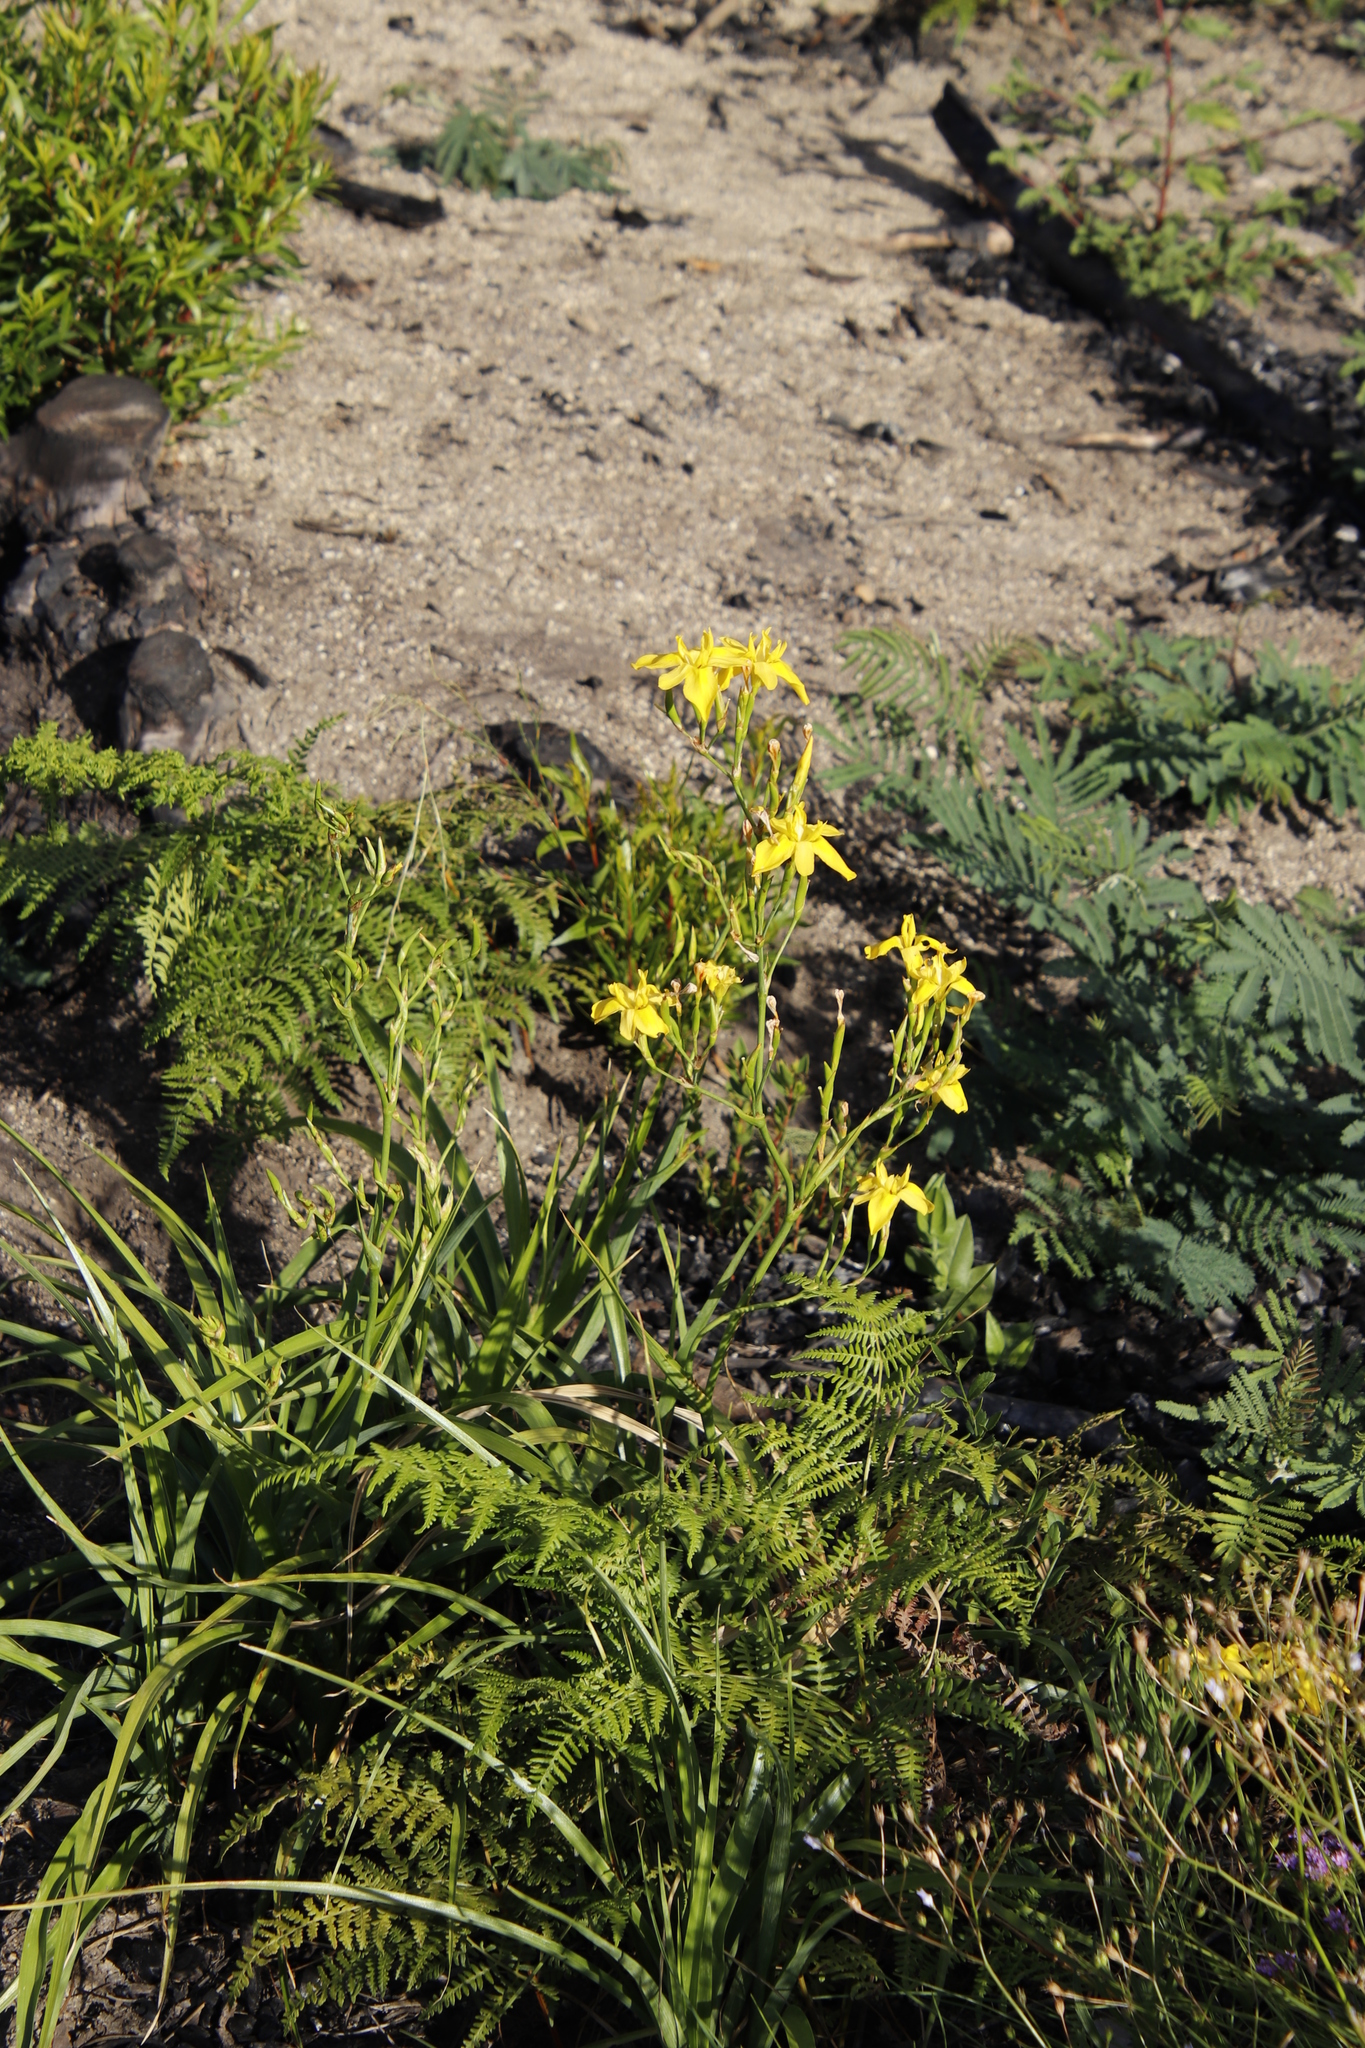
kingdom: Plantae
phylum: Tracheophyta
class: Liliopsida
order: Asparagales
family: Iridaceae
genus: Moraea
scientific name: Moraea ramosissima
